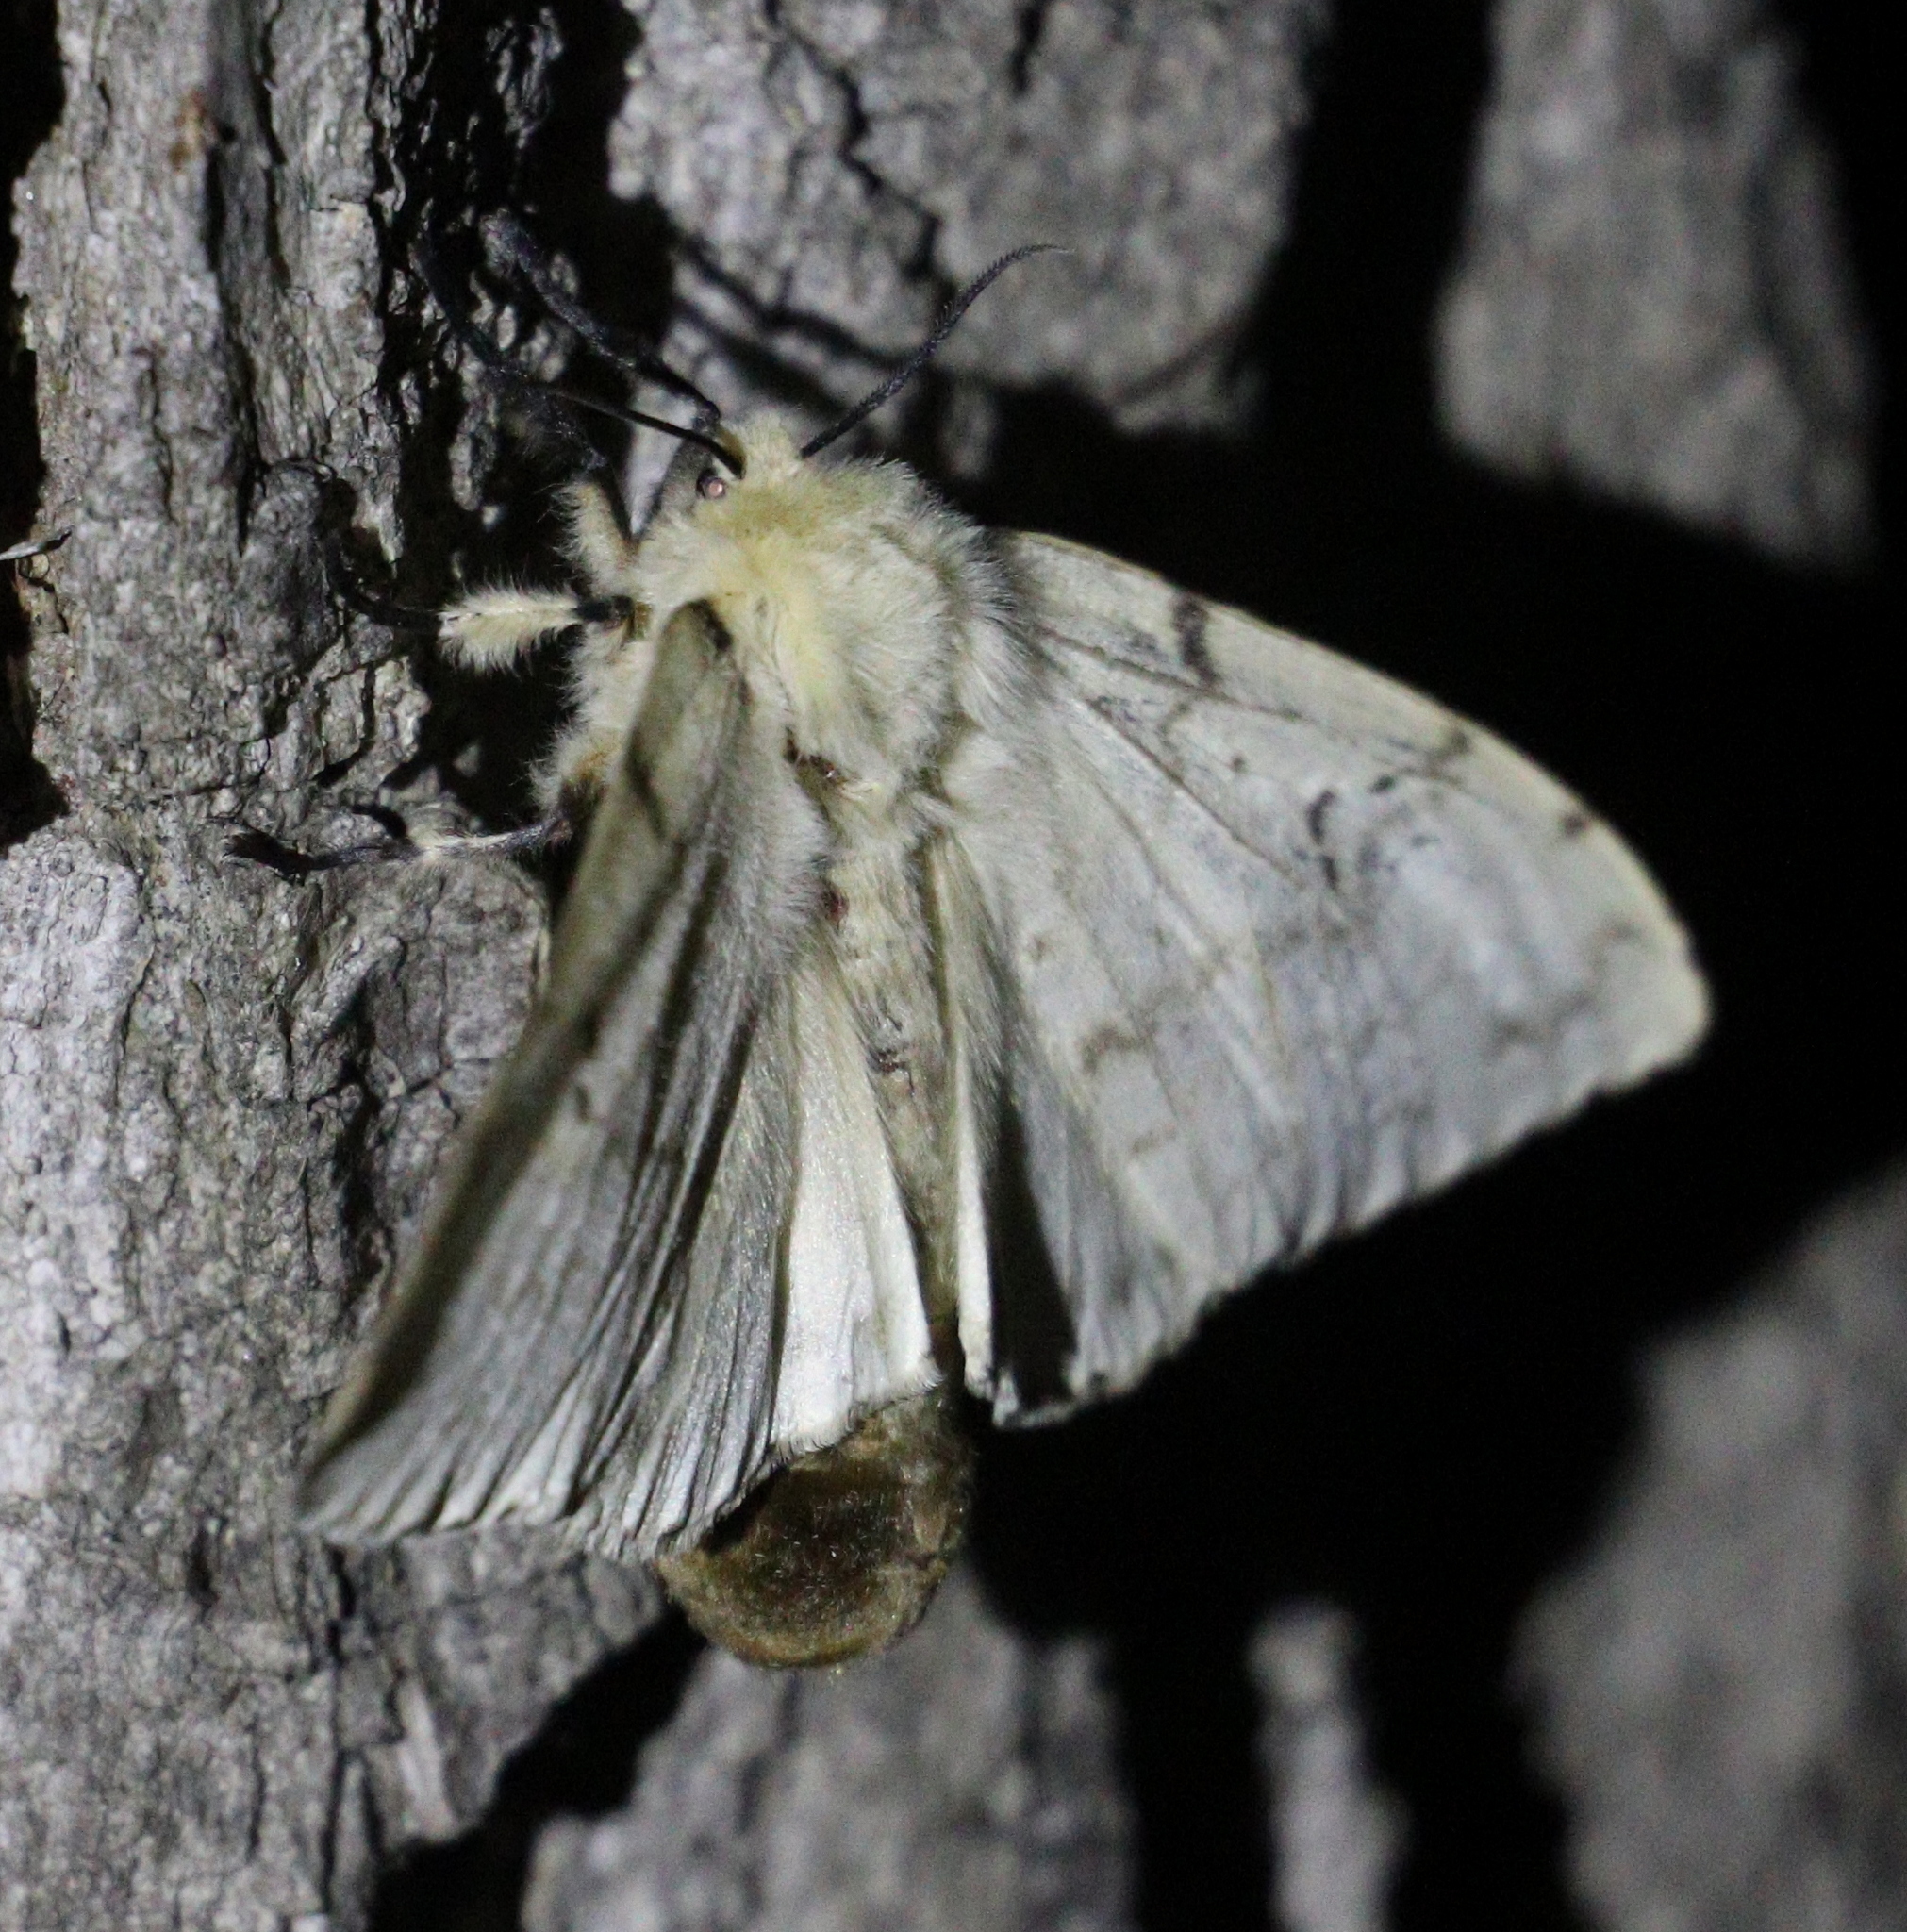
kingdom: Animalia
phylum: Arthropoda
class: Insecta
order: Lepidoptera
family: Erebidae
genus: Lymantria
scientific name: Lymantria dispar
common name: Gypsy moth
